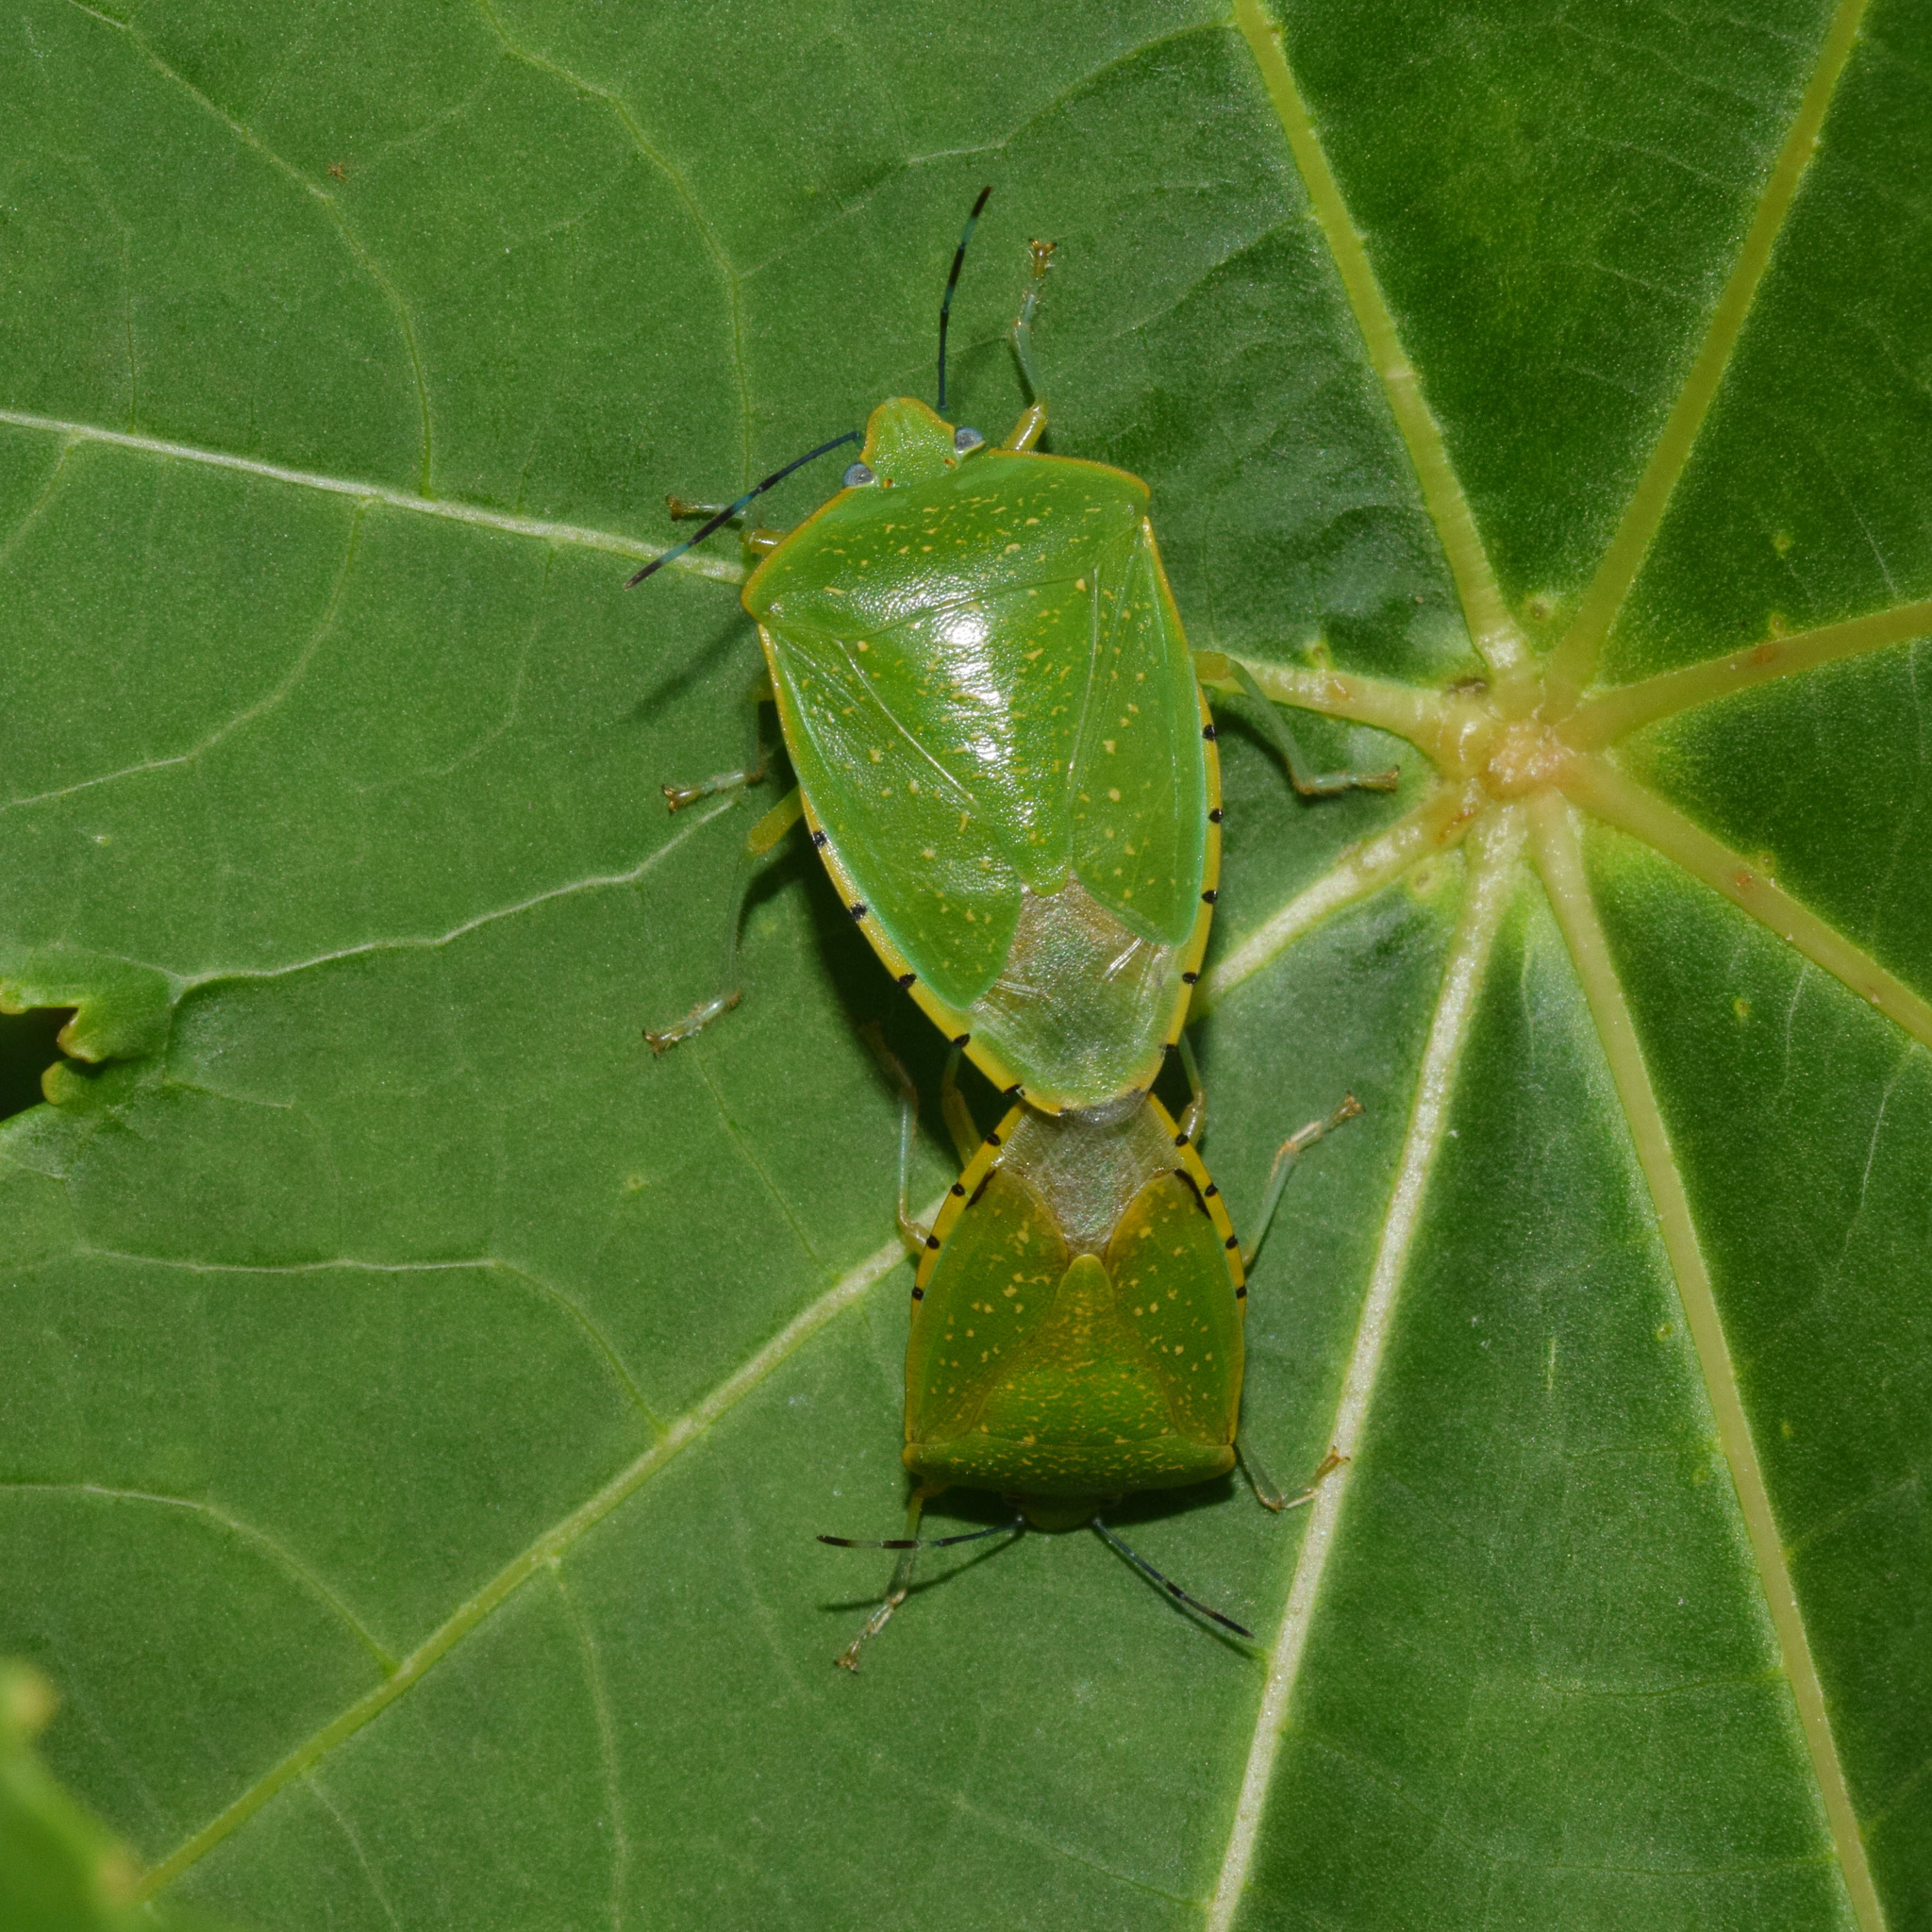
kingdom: Animalia
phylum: Arthropoda
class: Insecta
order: Hemiptera
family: Pentatomidae
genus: Chinavia
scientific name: Chinavia
